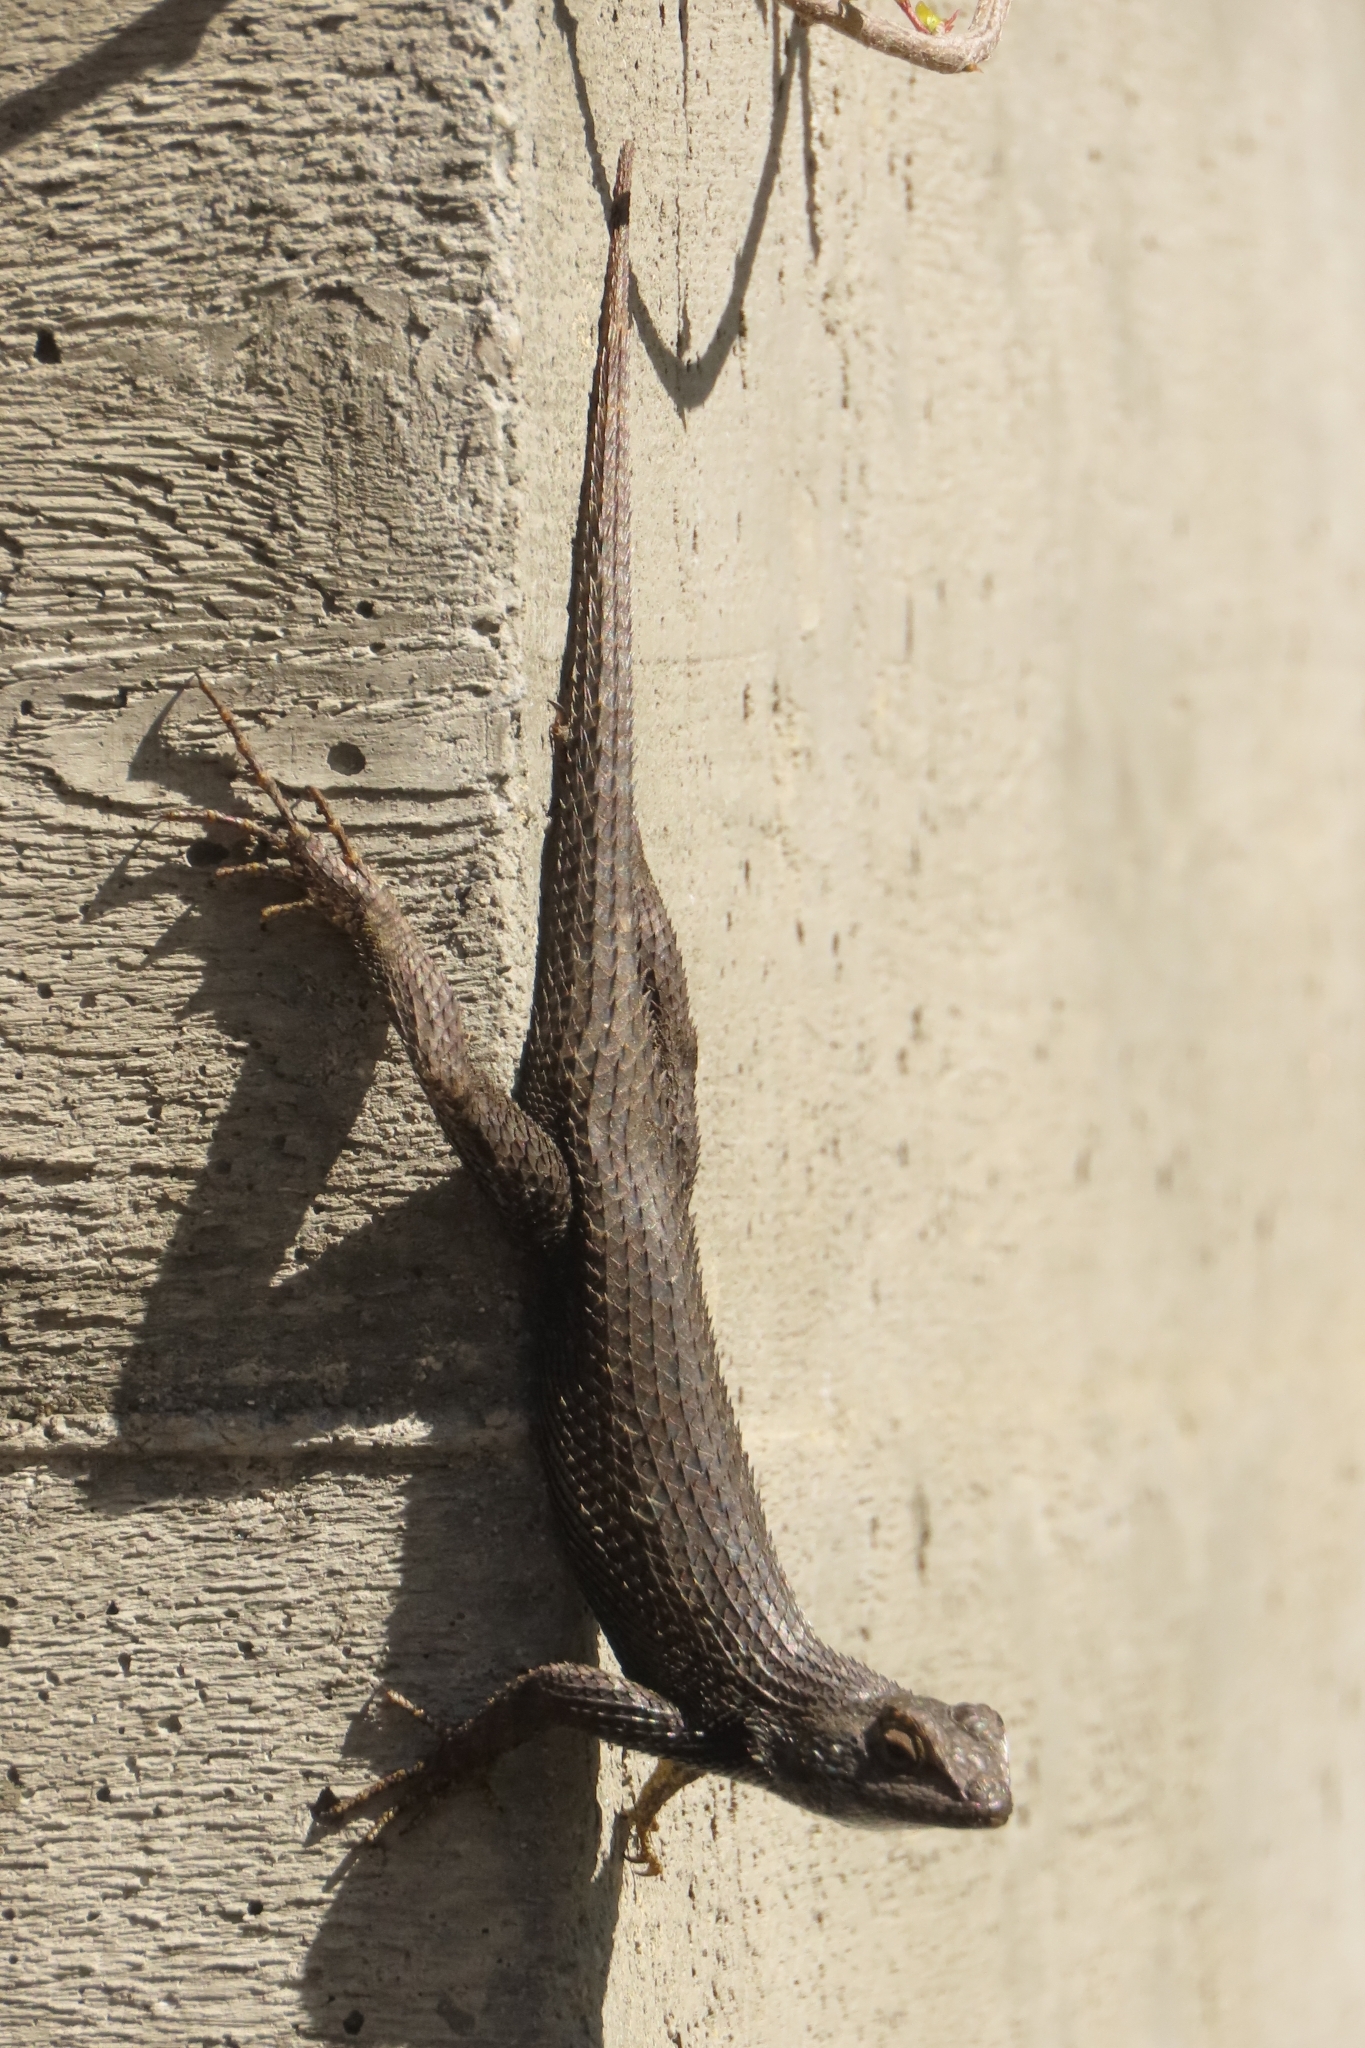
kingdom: Animalia
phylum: Chordata
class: Squamata
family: Phrynosomatidae
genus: Sceloporus
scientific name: Sceloporus occidentalis
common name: Western fence lizard
